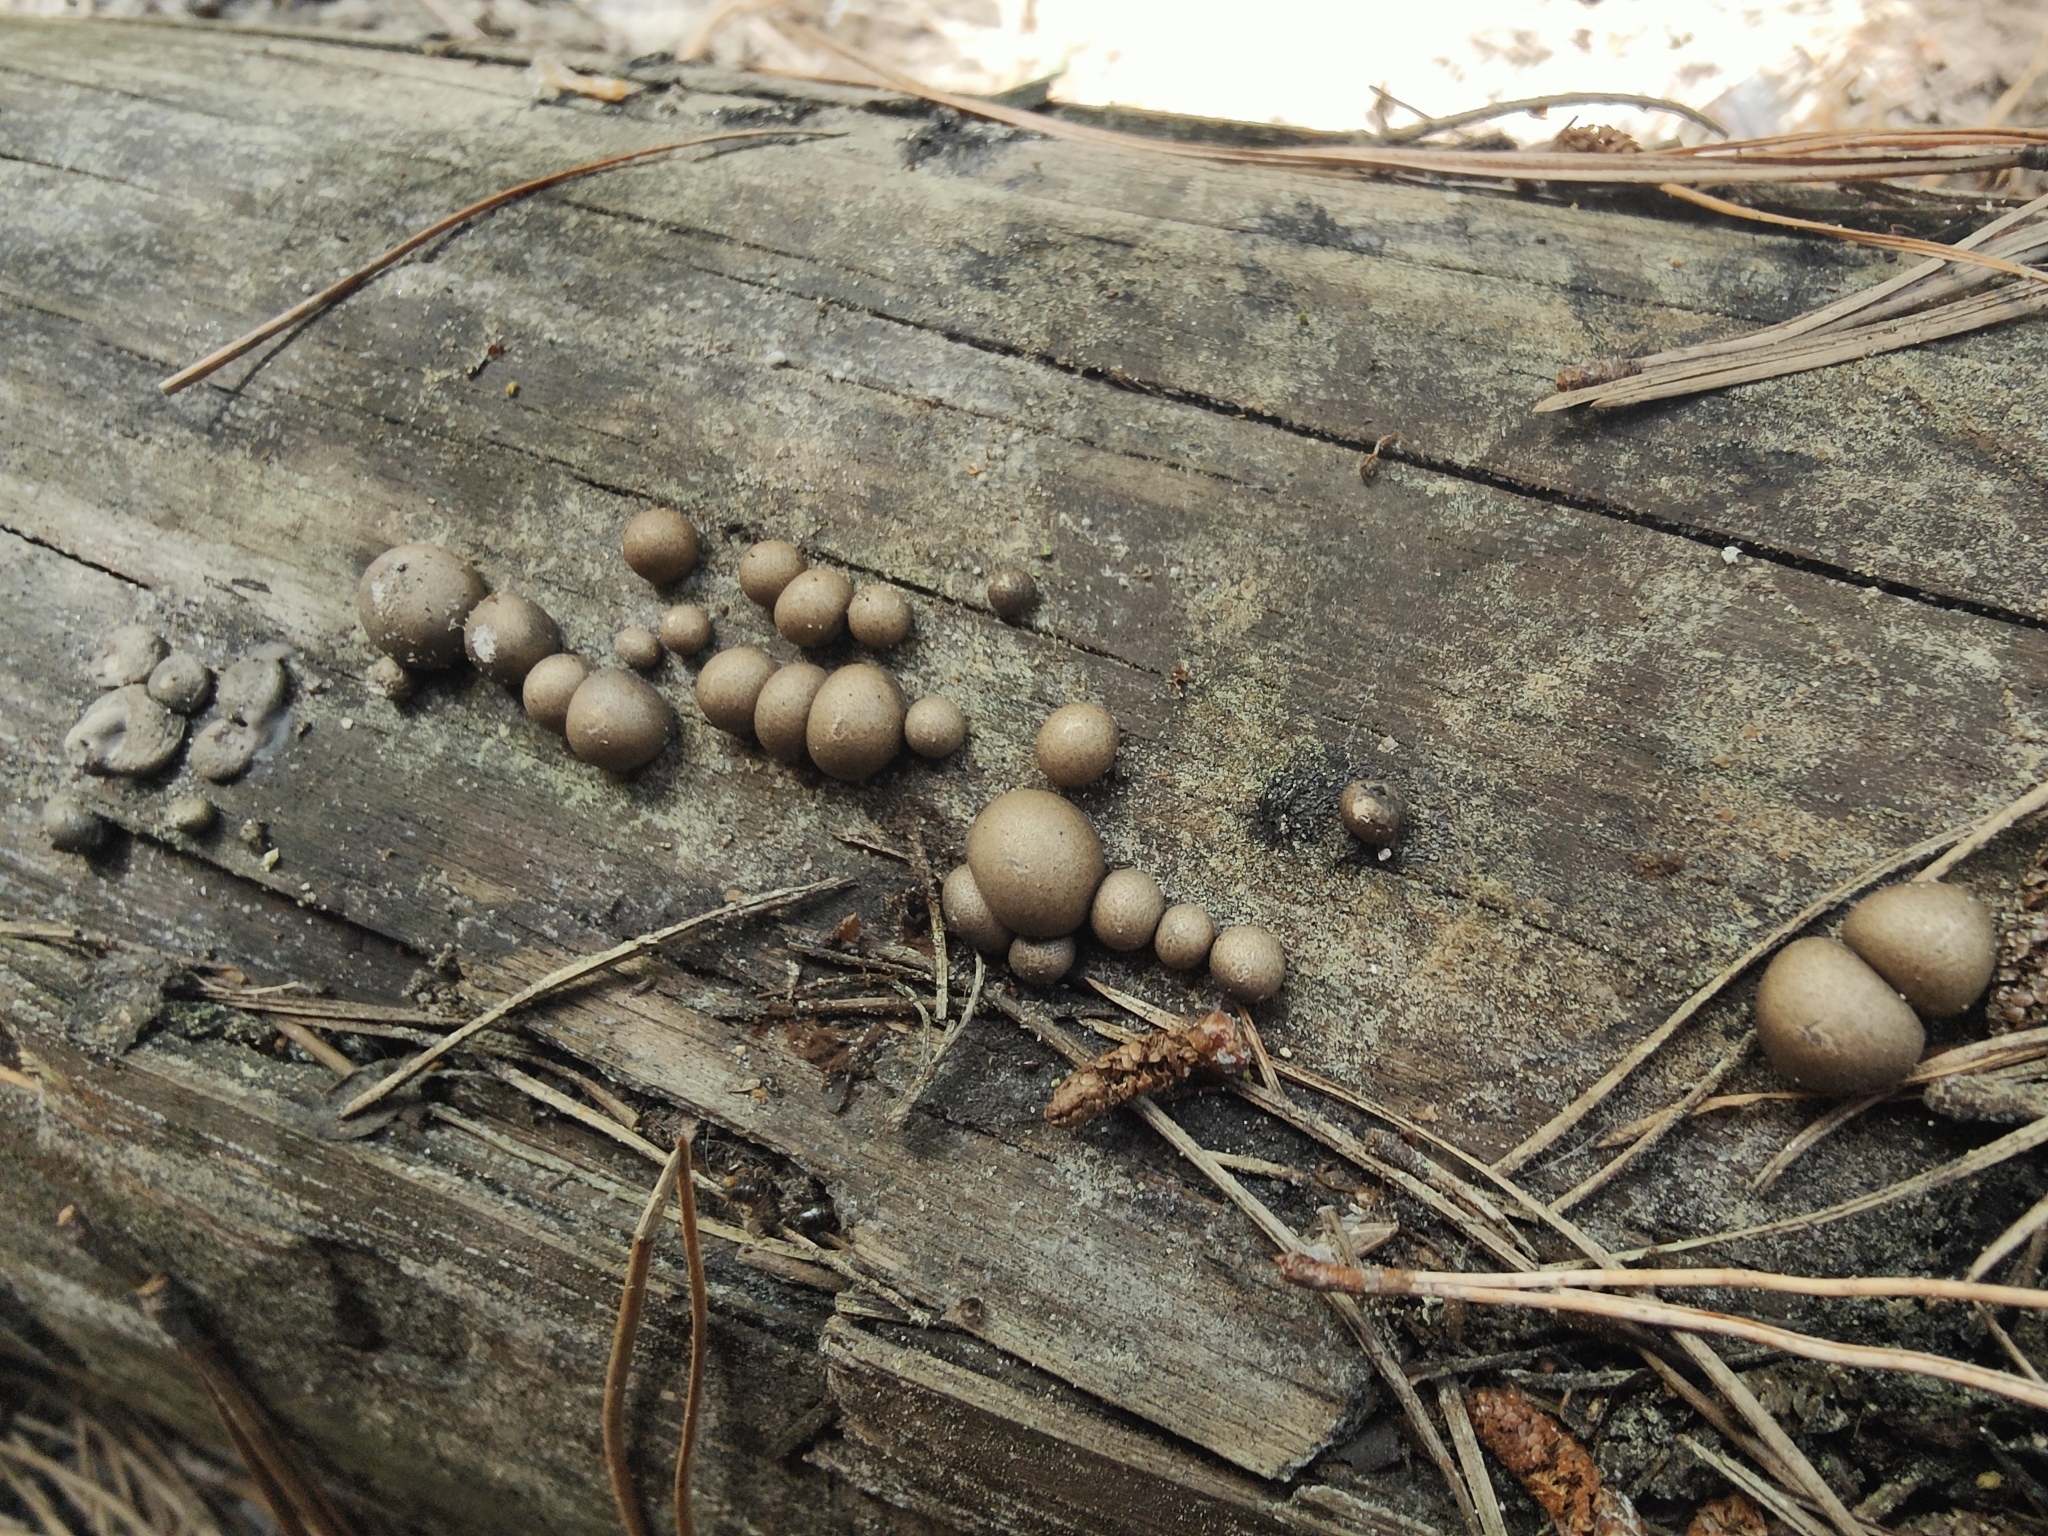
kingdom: Protozoa
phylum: Mycetozoa
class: Myxomycetes
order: Cribrariales
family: Tubiferaceae
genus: Lycogala
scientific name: Lycogala epidendrum
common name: Wolf's milk
